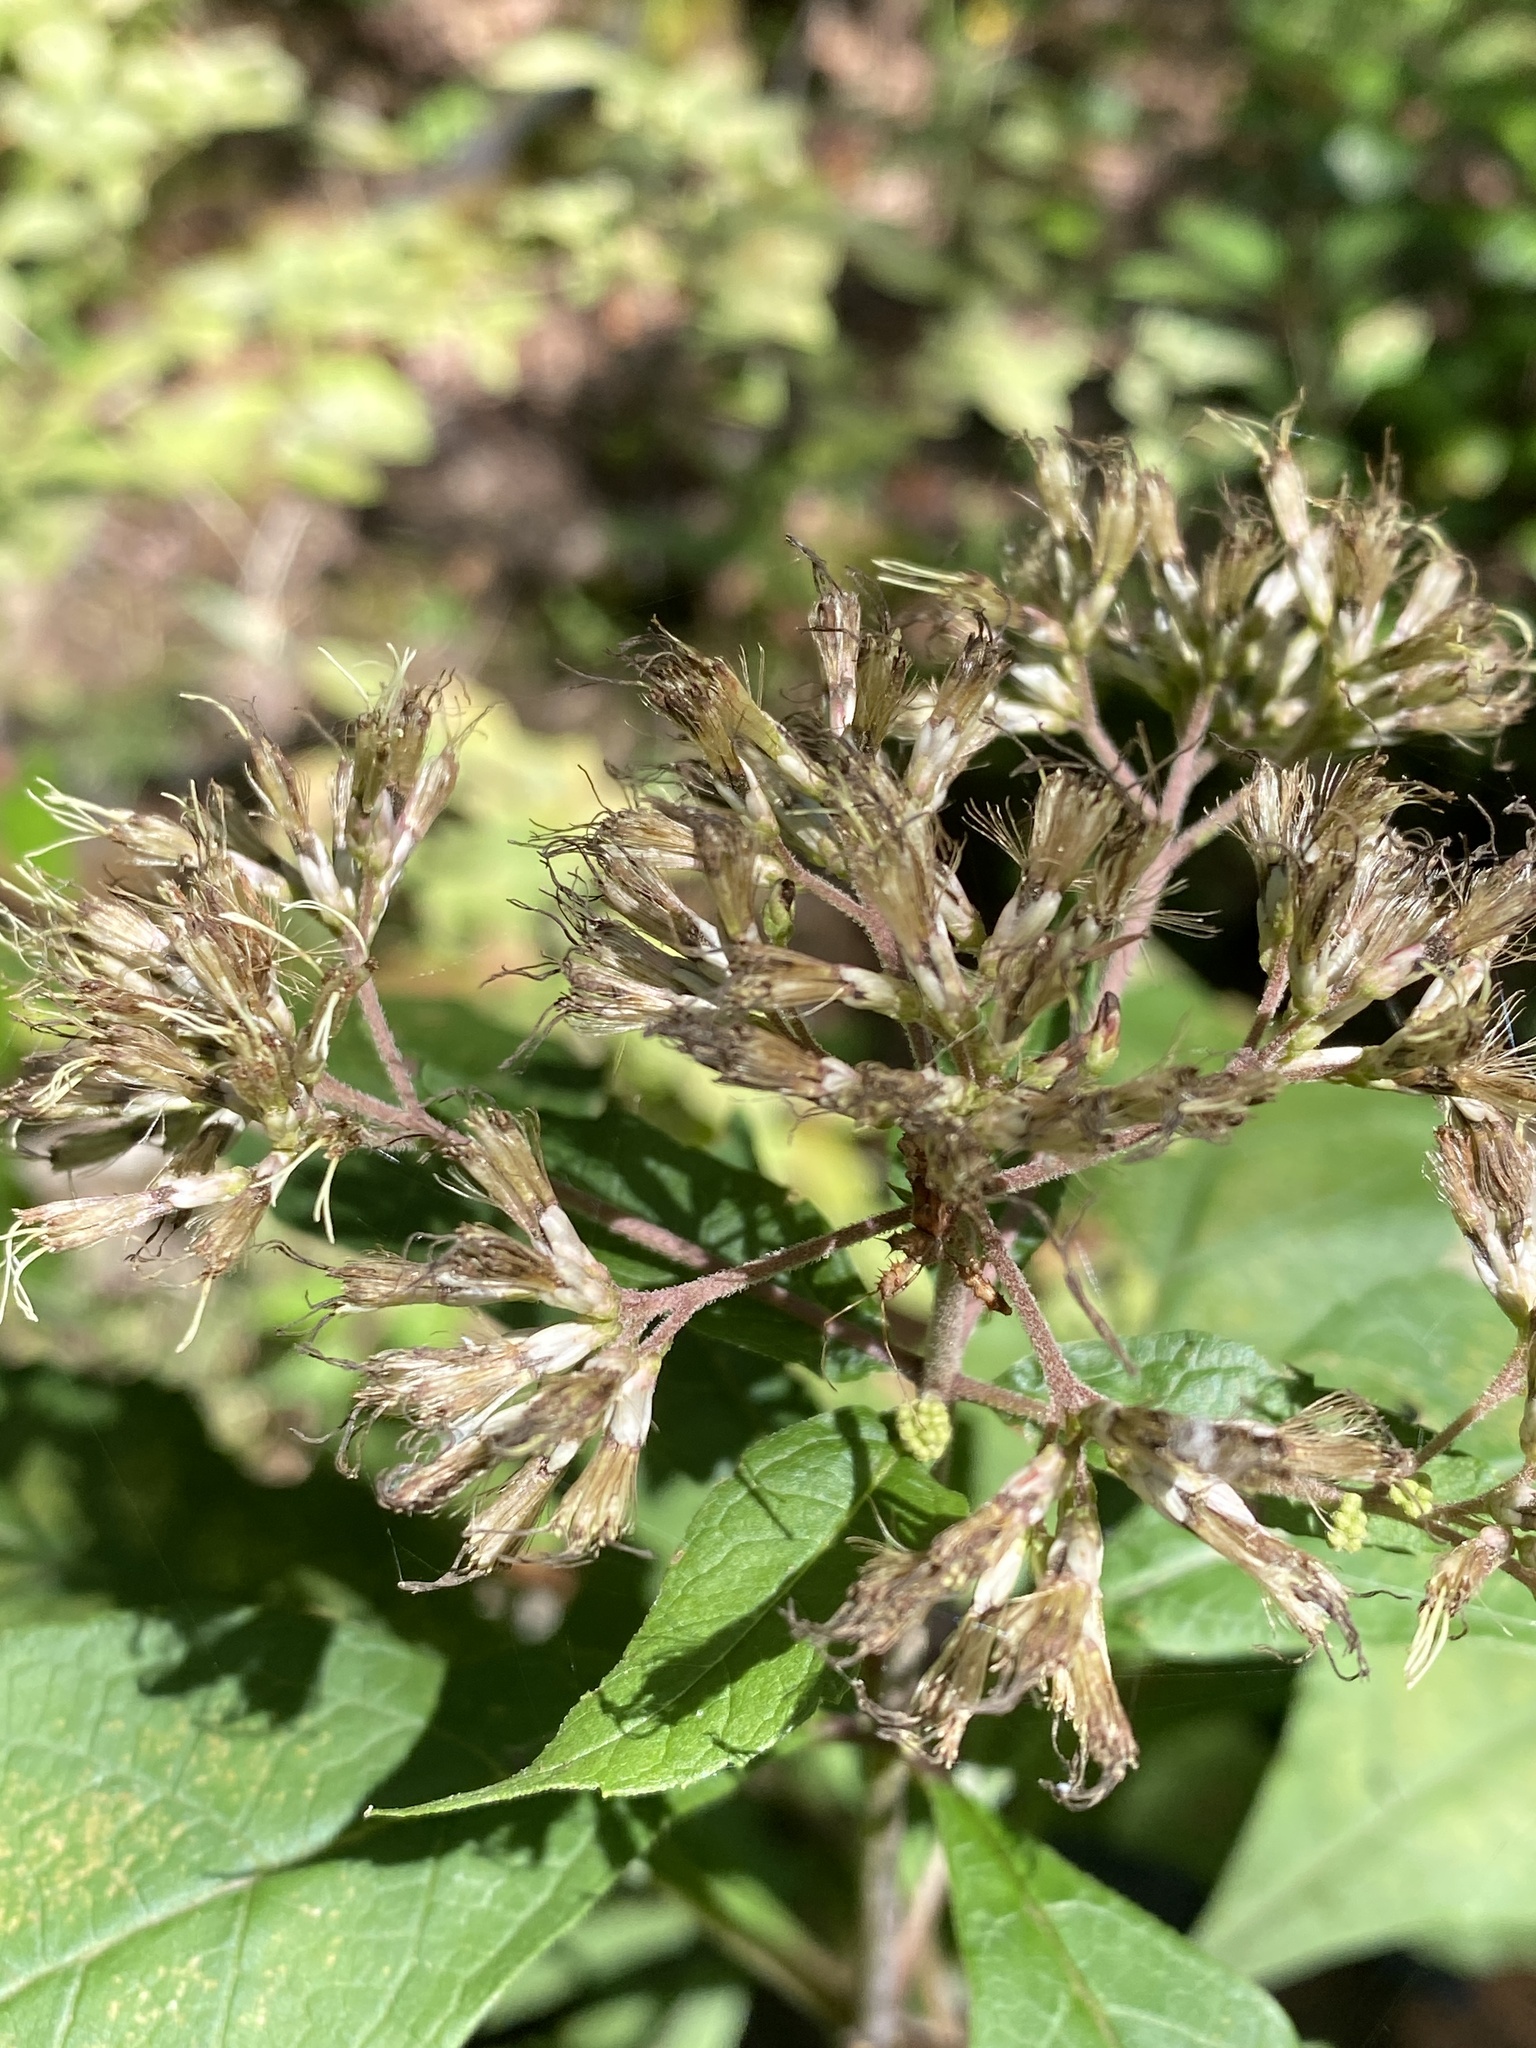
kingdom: Plantae
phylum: Tracheophyta
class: Magnoliopsida
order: Asterales
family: Asteraceae
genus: Eutrochium
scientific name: Eutrochium fistulosum
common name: Trumpetweed
